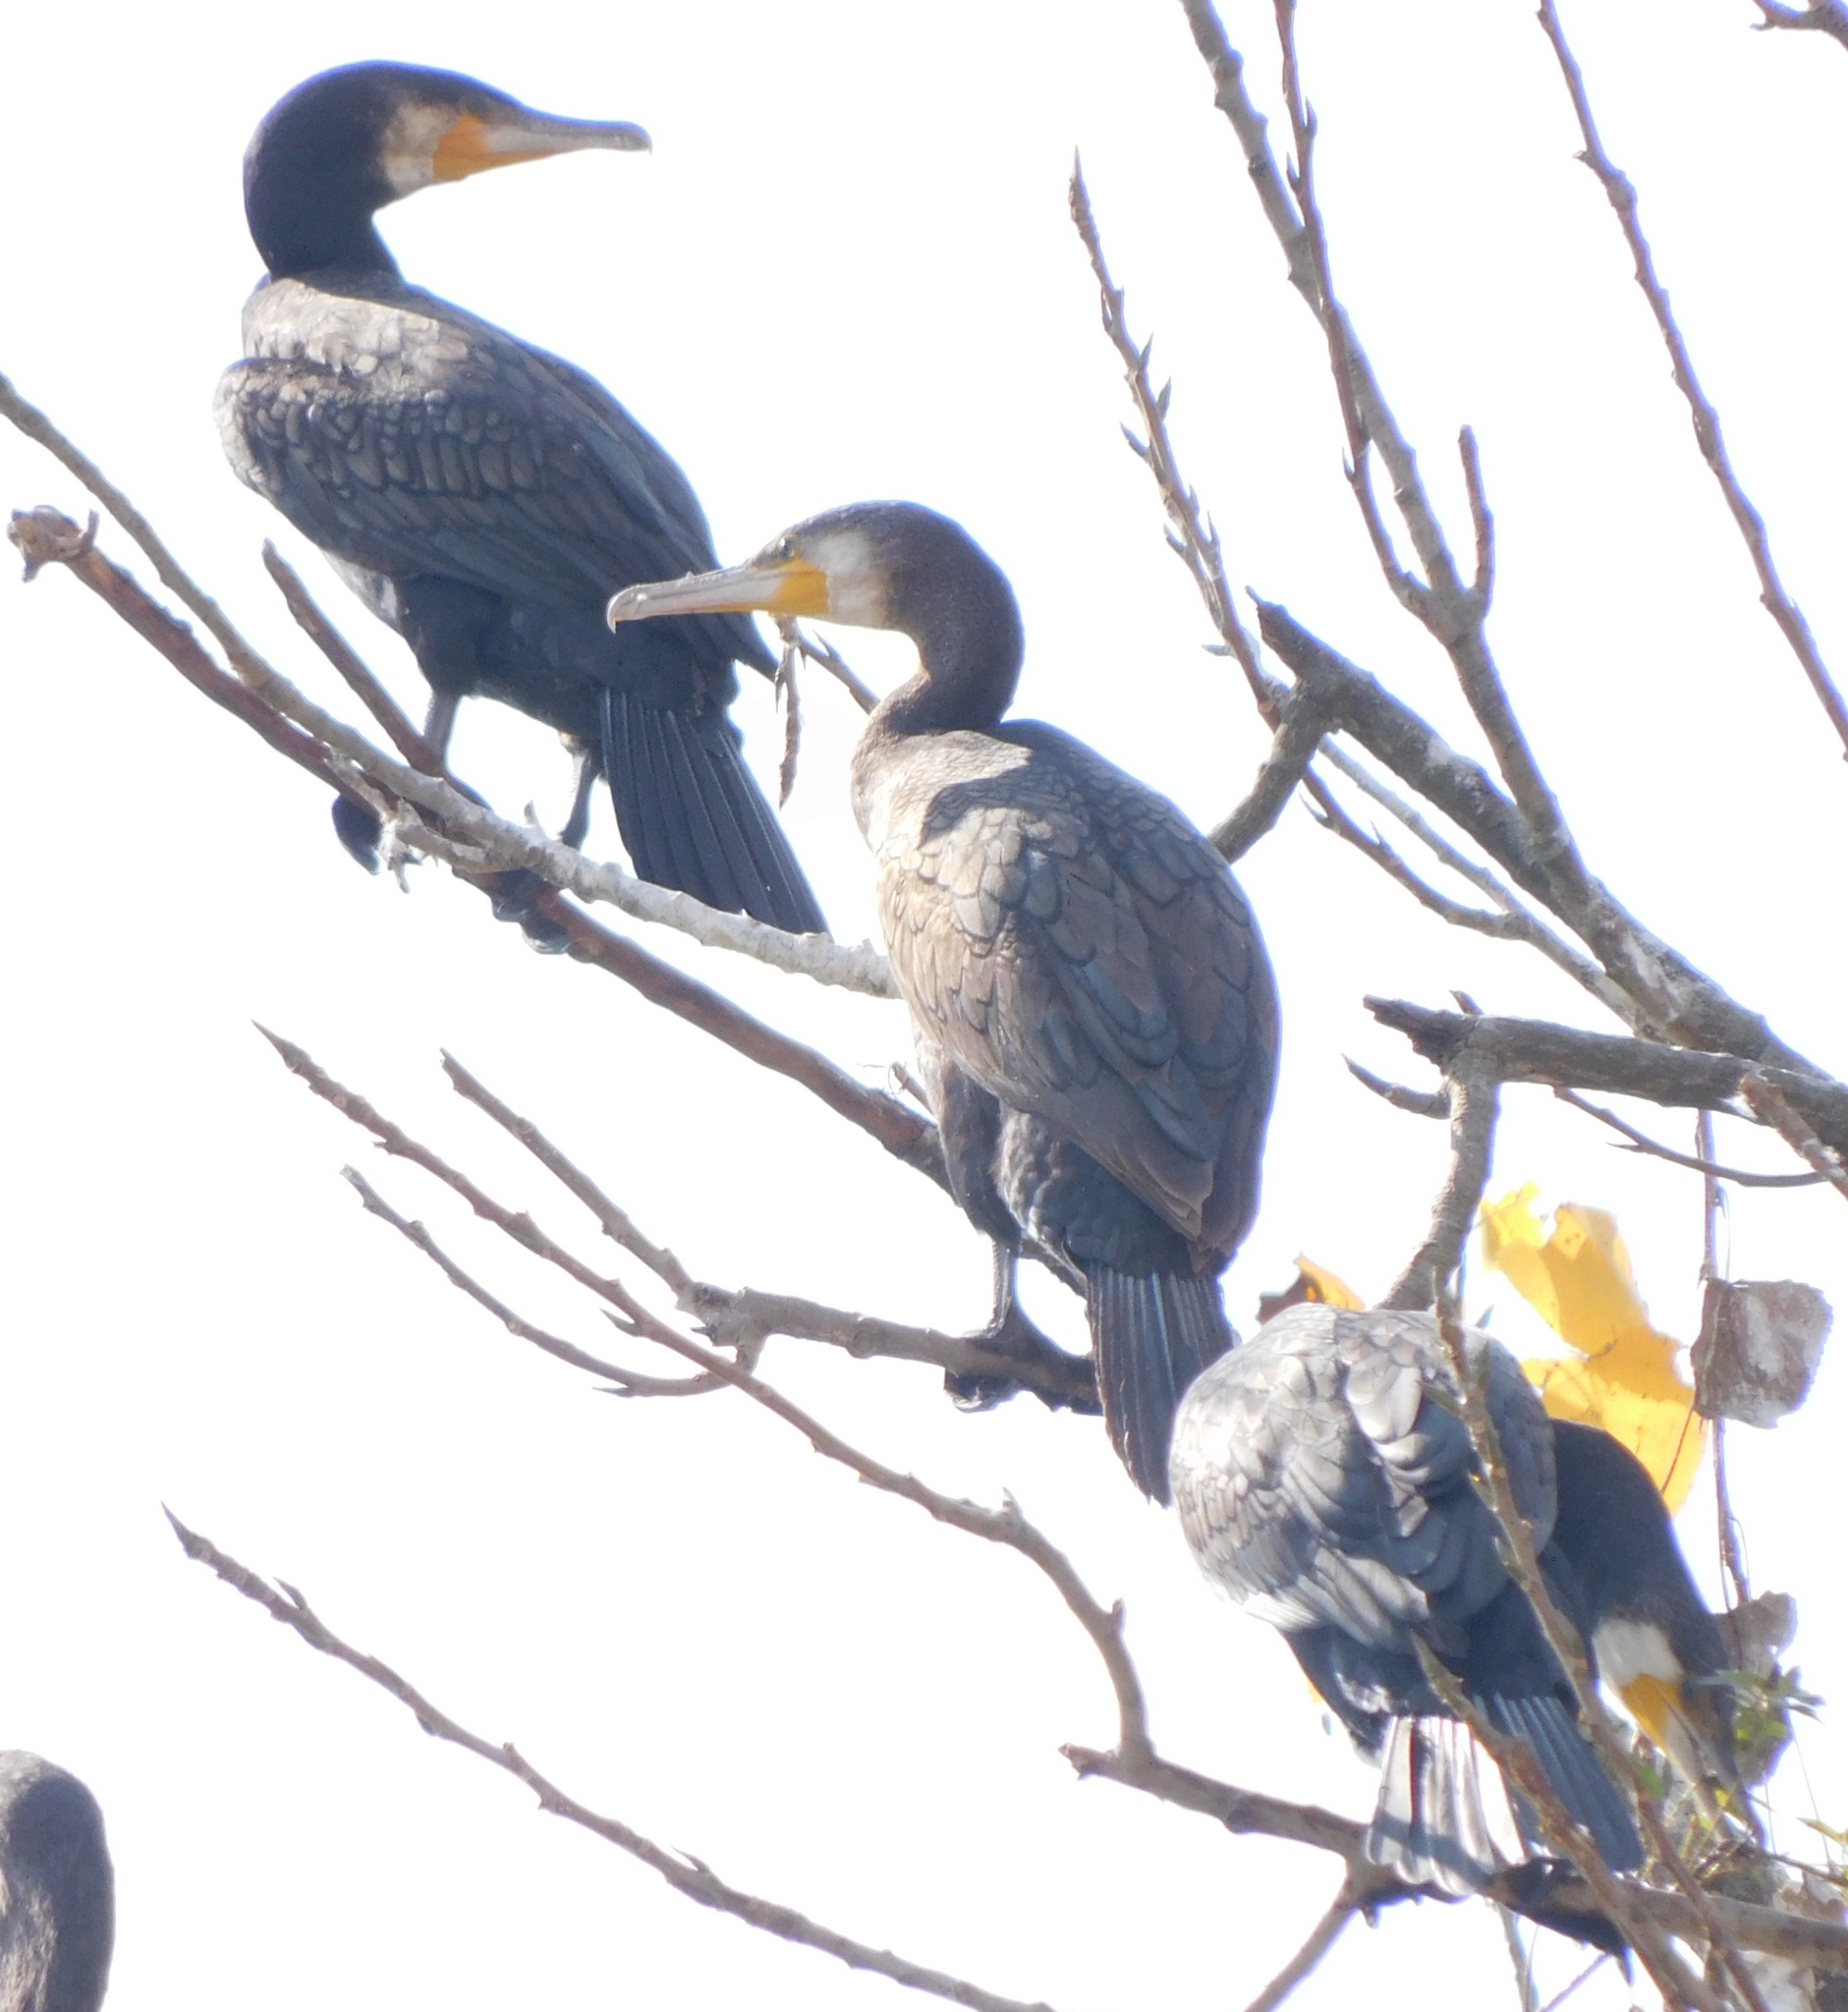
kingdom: Animalia
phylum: Chordata
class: Aves
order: Suliformes
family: Phalacrocoracidae
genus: Phalacrocorax
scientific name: Phalacrocorax carbo
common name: Great cormorant
